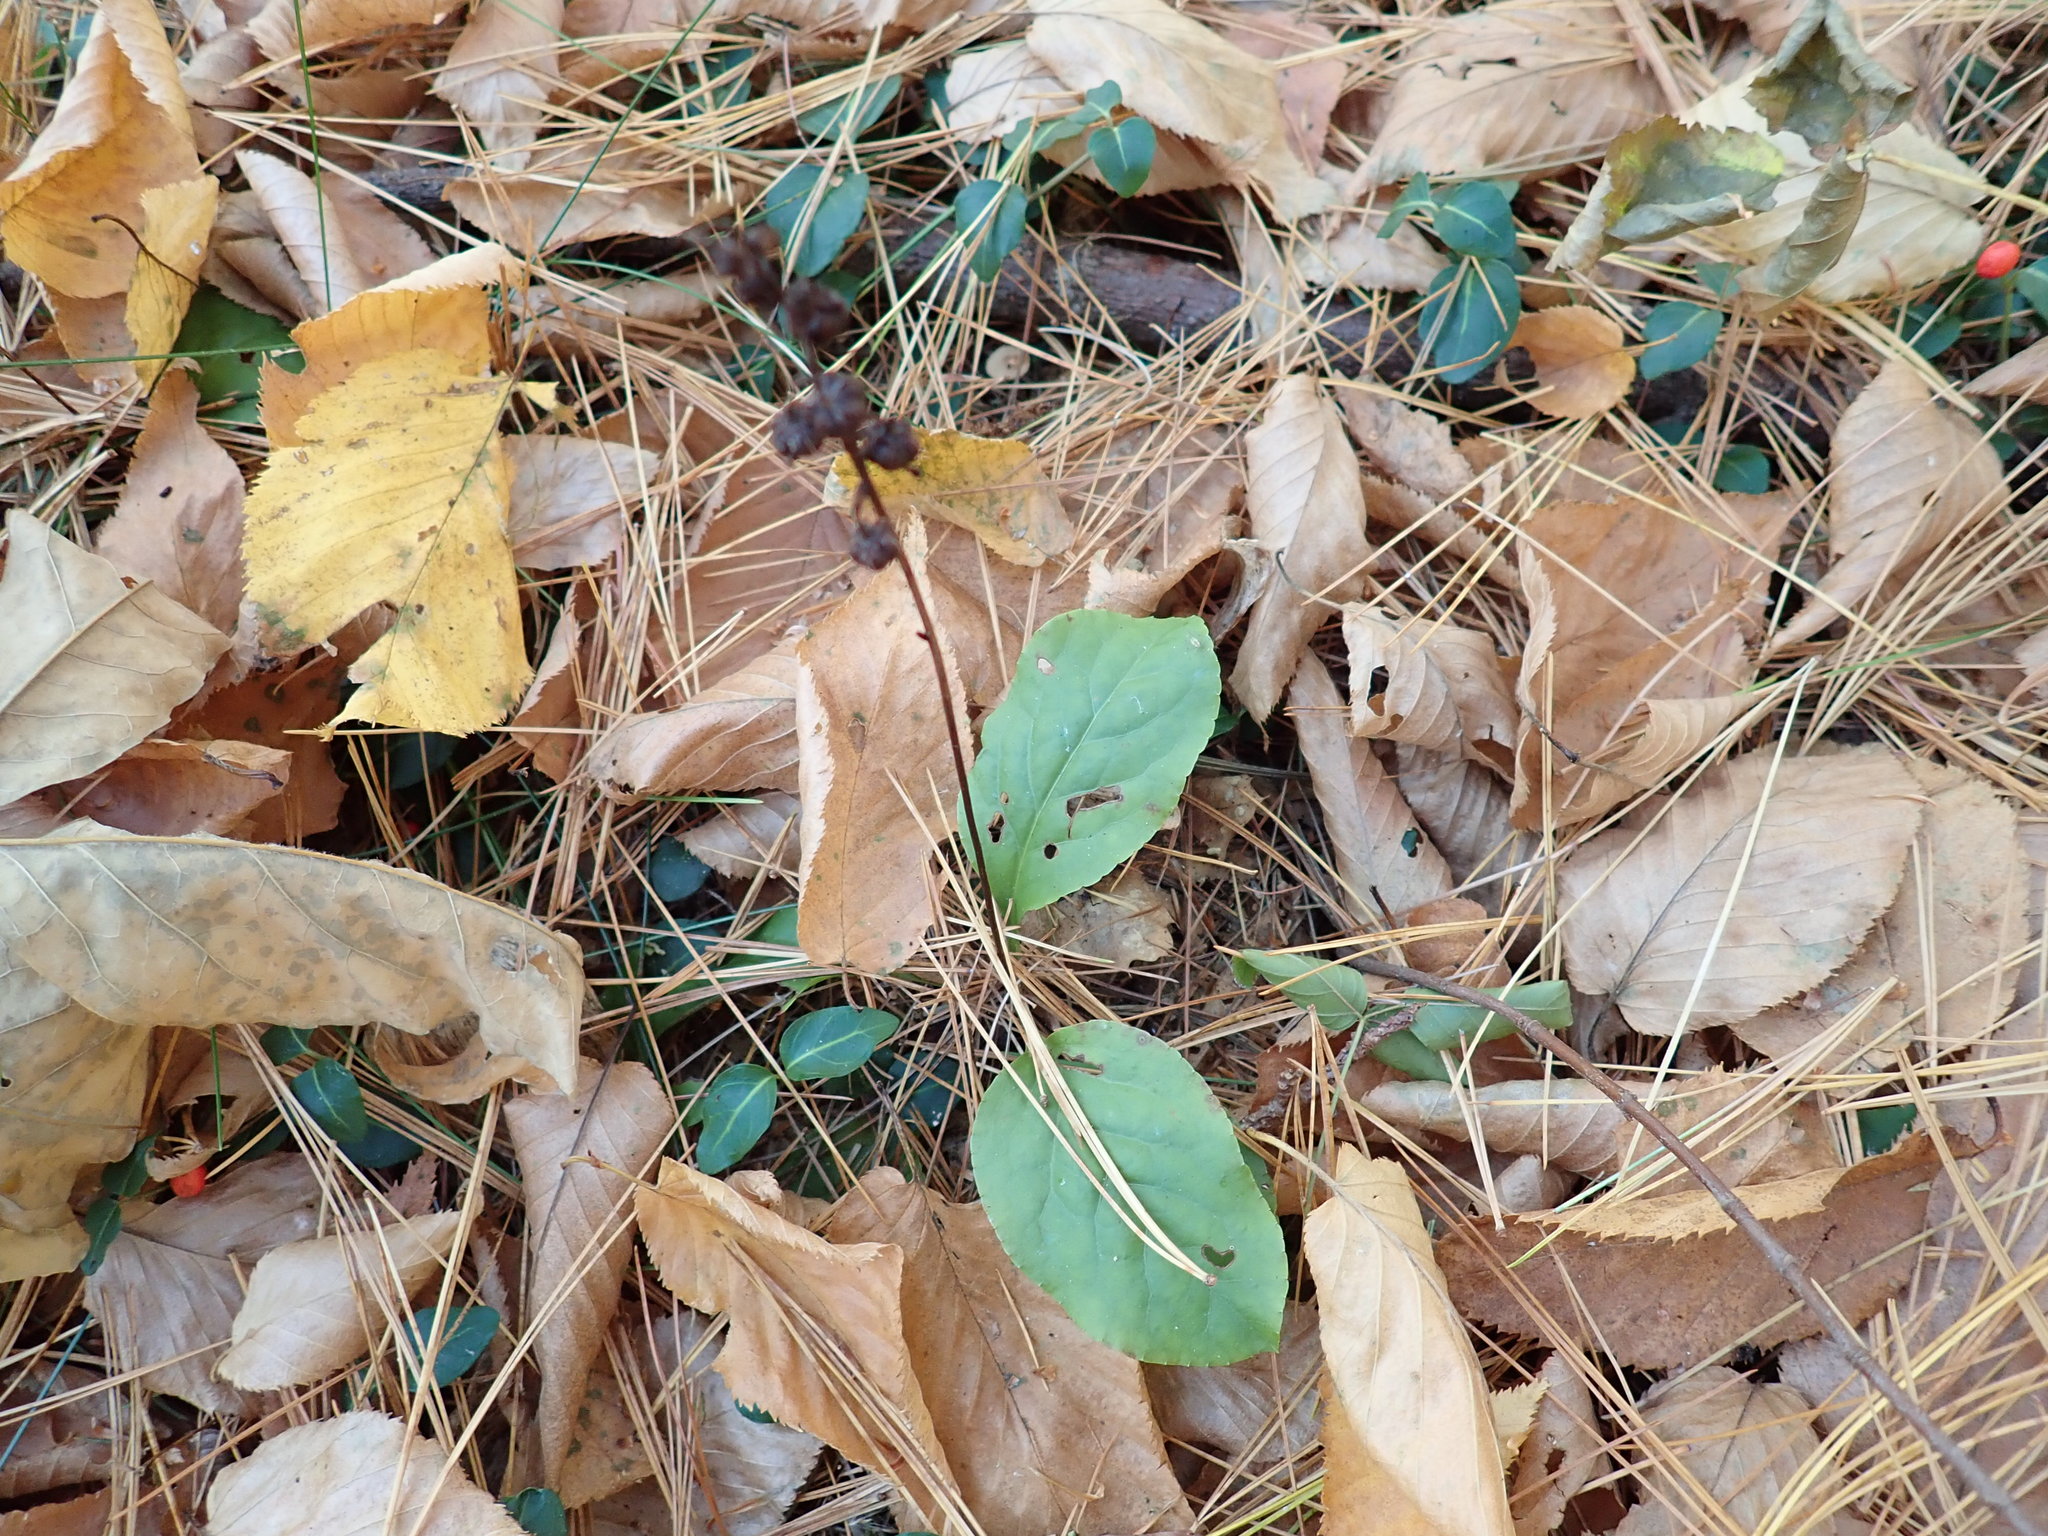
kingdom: Plantae
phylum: Tracheophyta
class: Magnoliopsida
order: Ericales
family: Ericaceae
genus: Pyrola
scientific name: Pyrola elliptica
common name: Shinleaf
